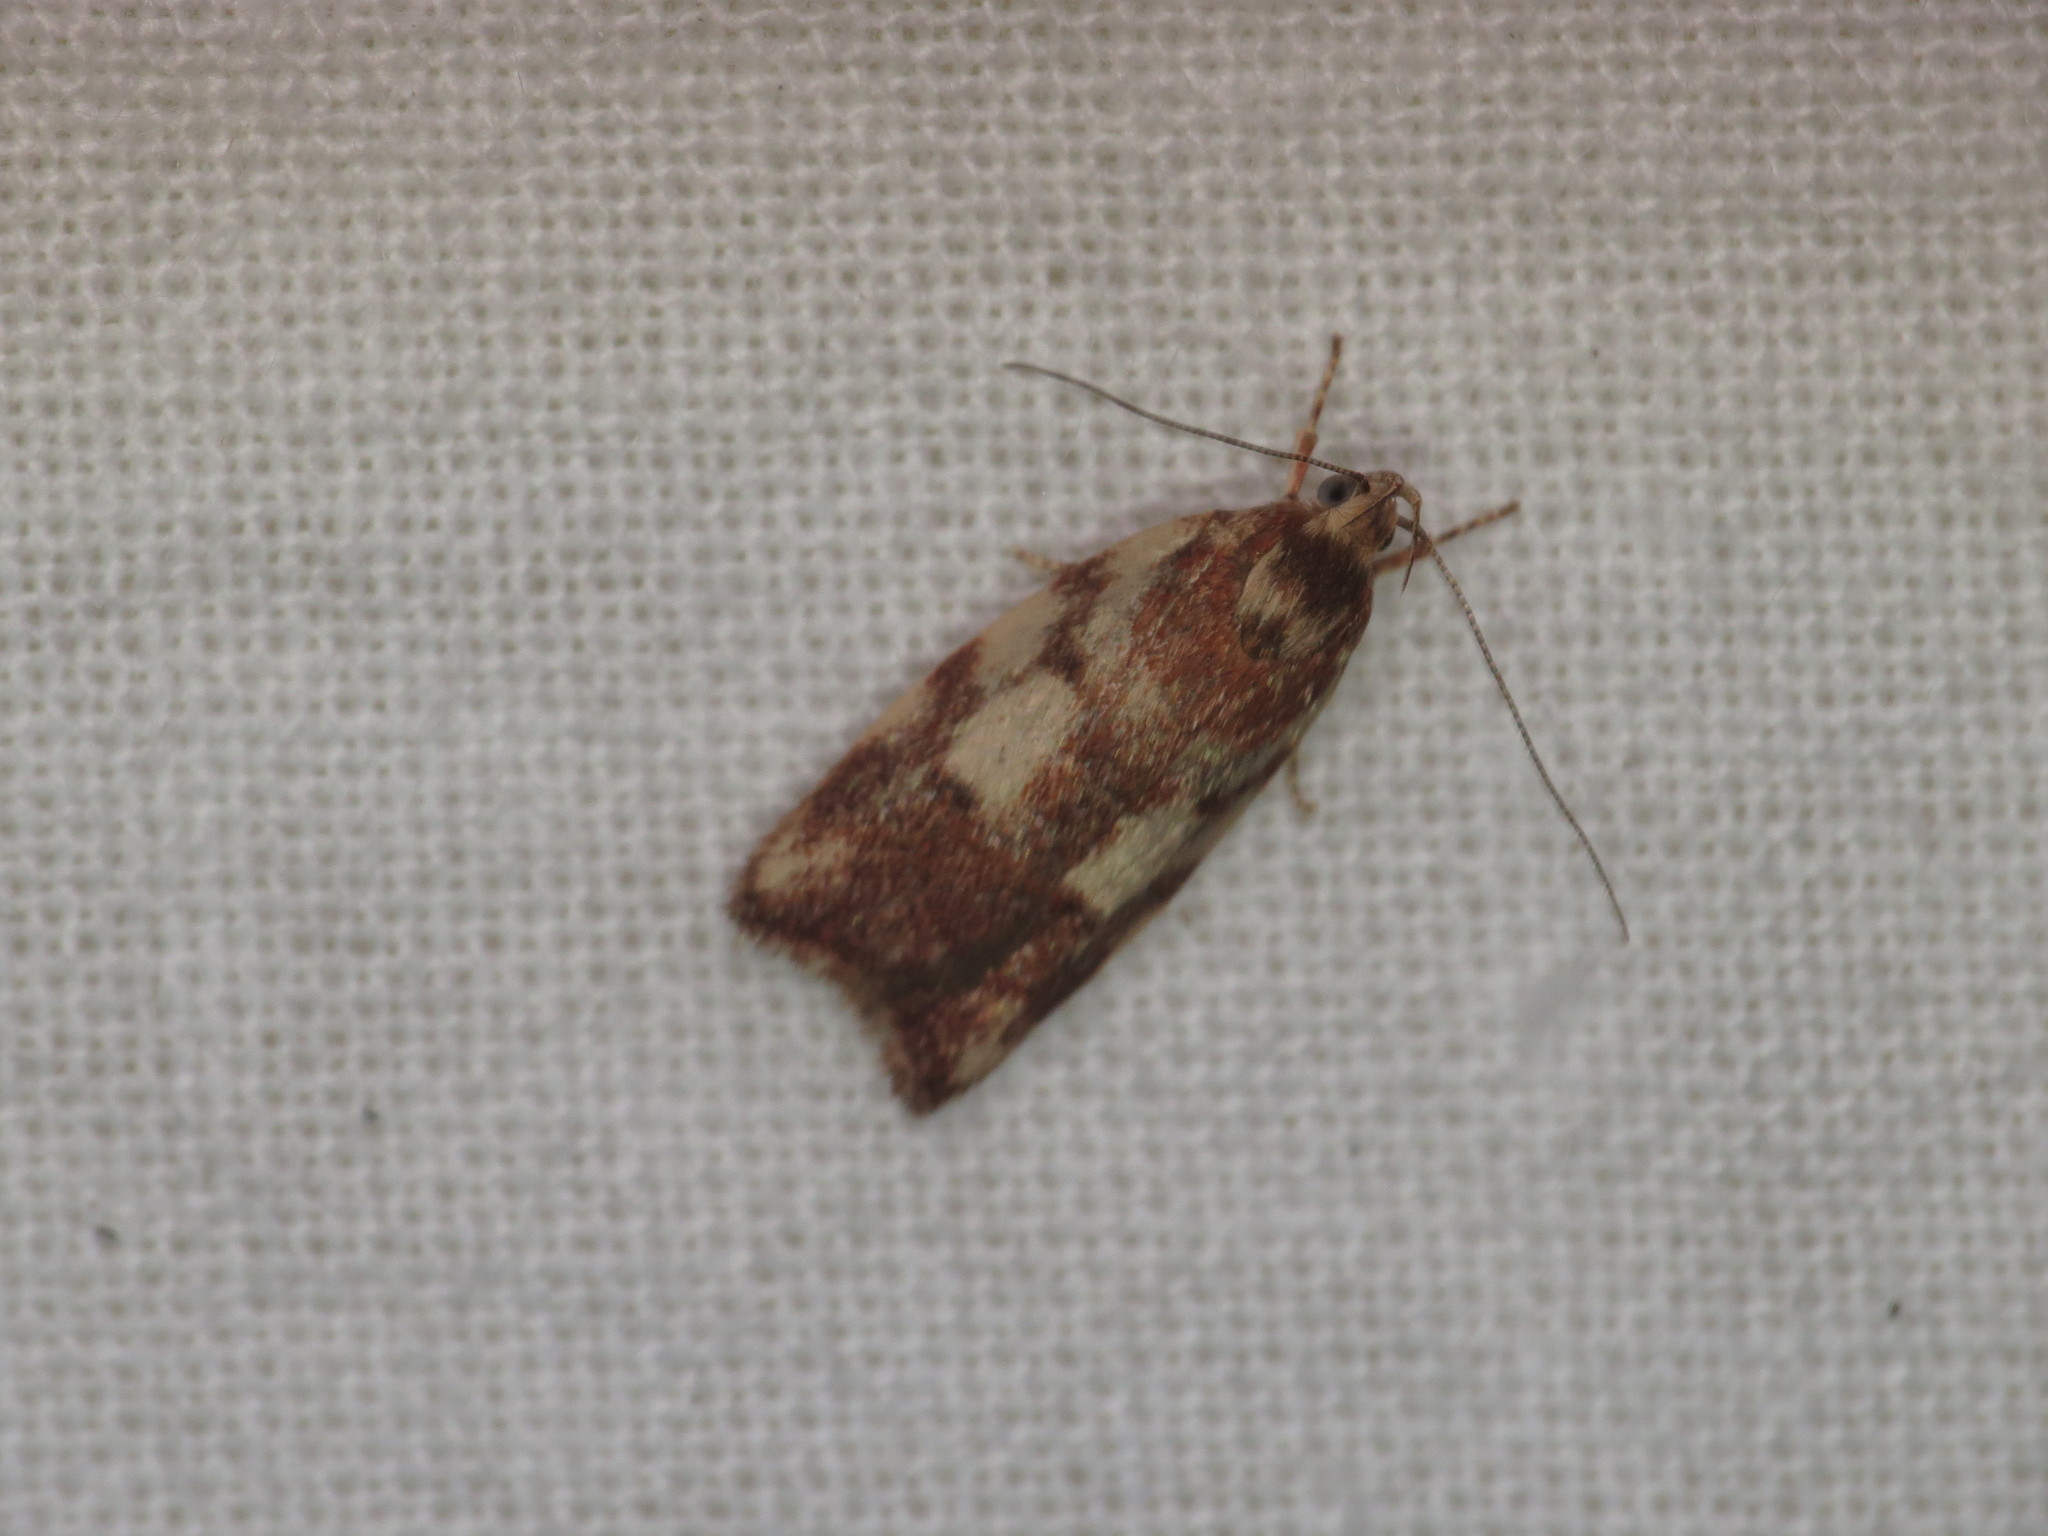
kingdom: Animalia
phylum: Arthropoda
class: Insecta
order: Lepidoptera
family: Oecophoridae
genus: Syringoseca
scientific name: Syringoseca mimica
